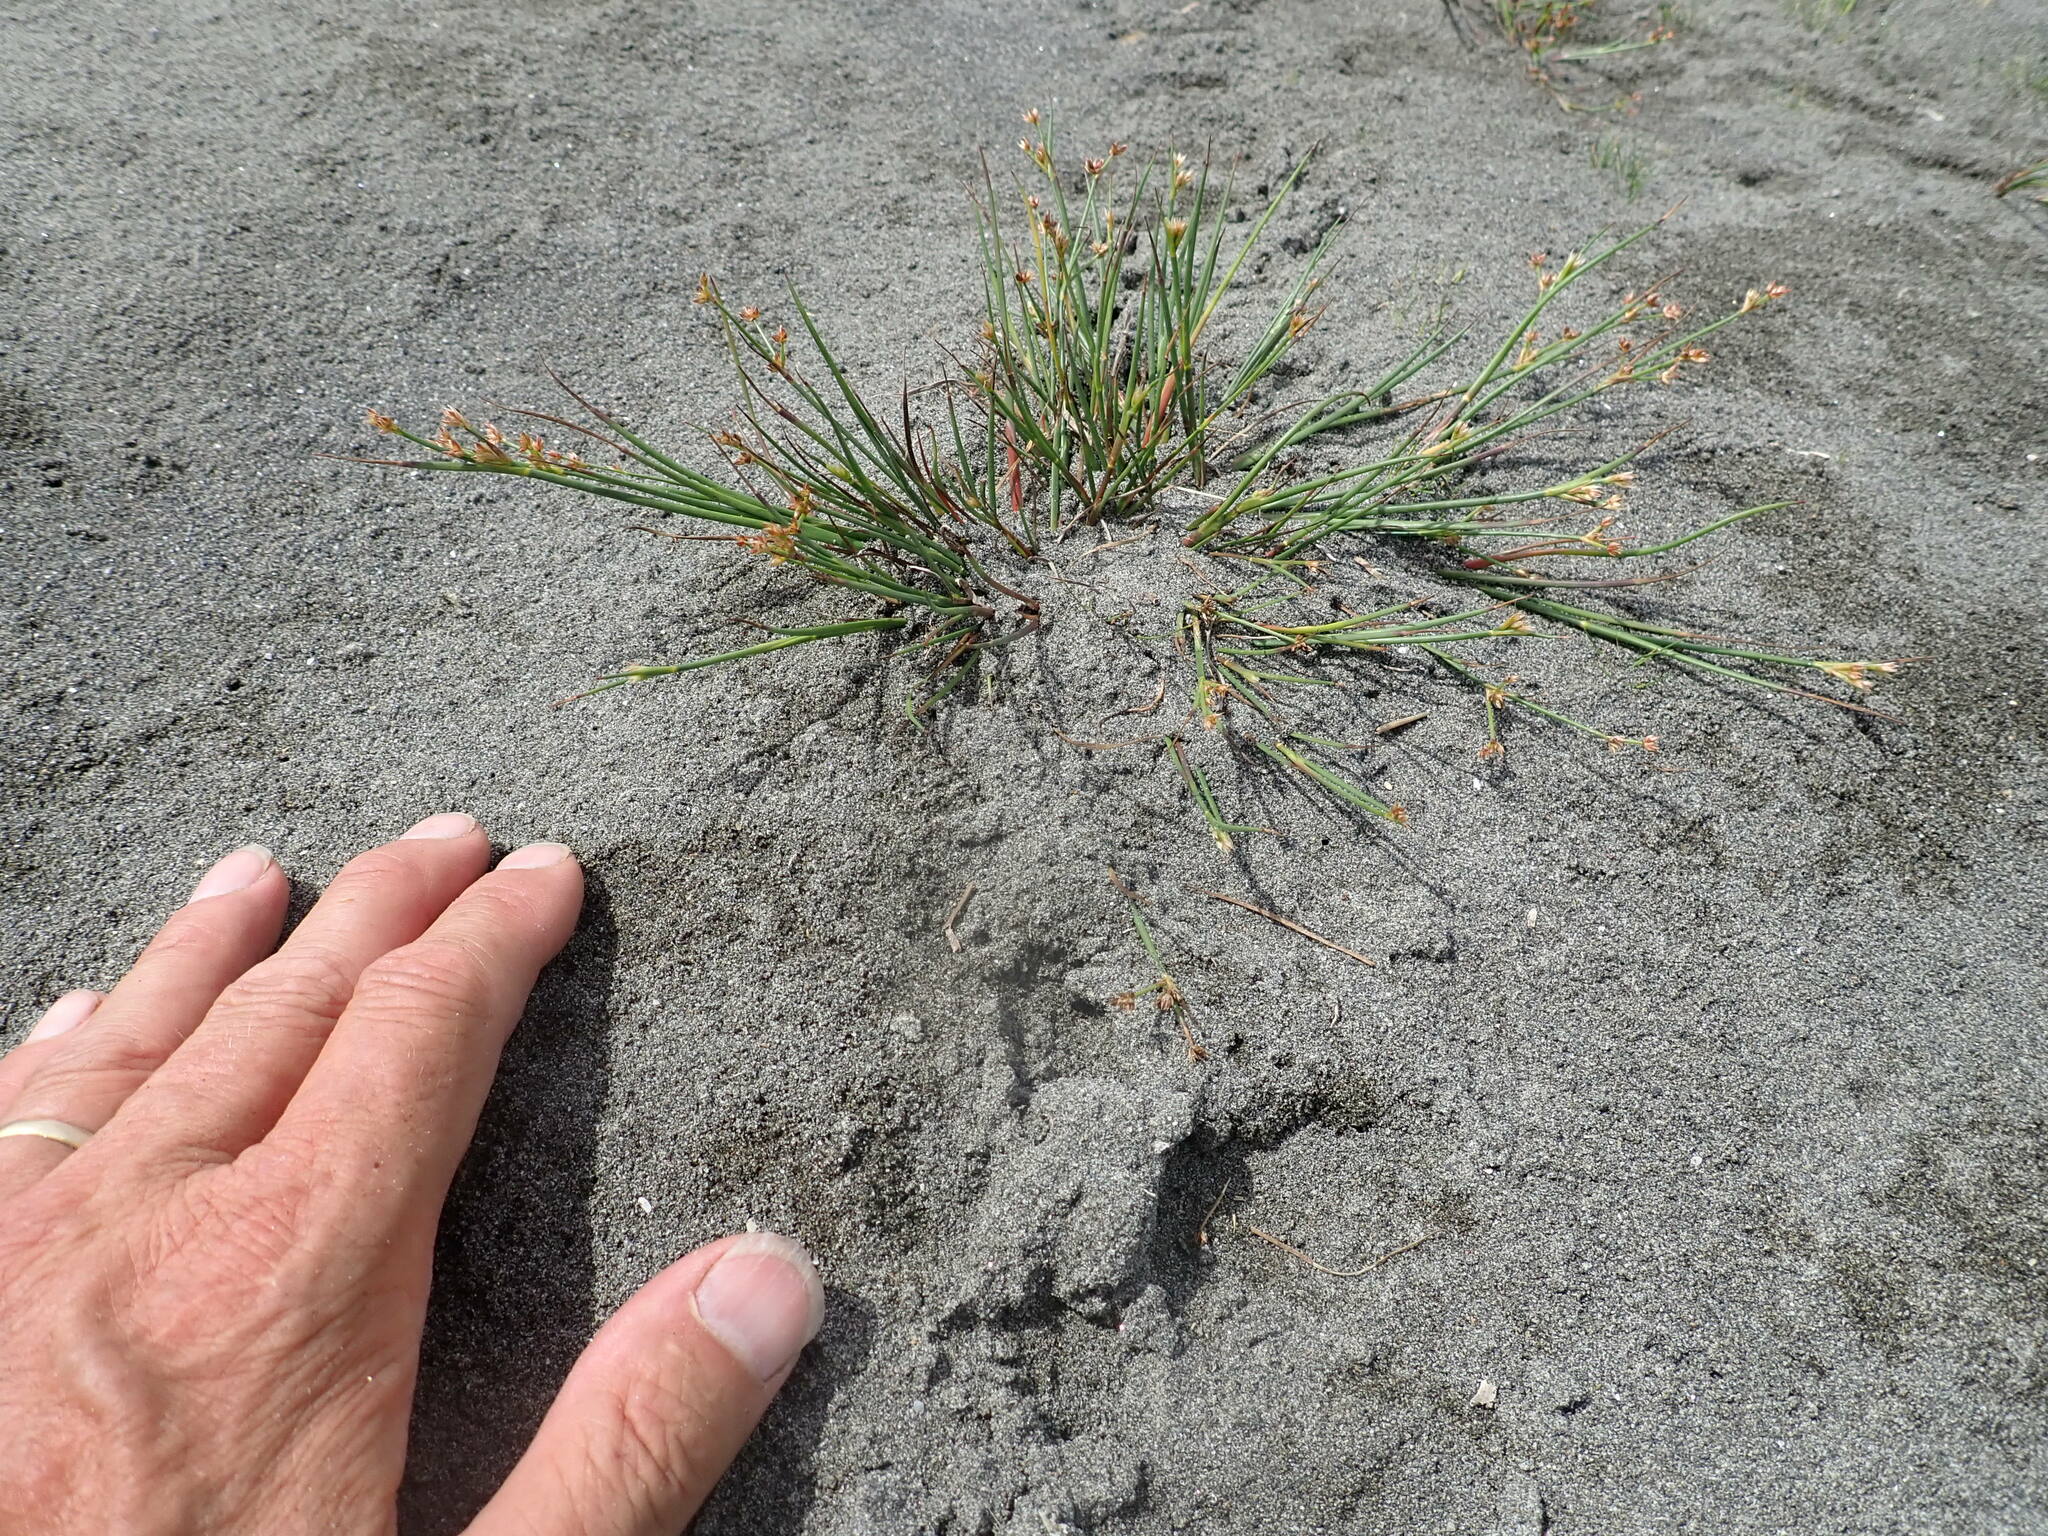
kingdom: Plantae
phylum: Tracheophyta
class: Liliopsida
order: Poales
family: Juncaceae
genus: Juncus
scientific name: Juncus articulatus
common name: Jointed rush
